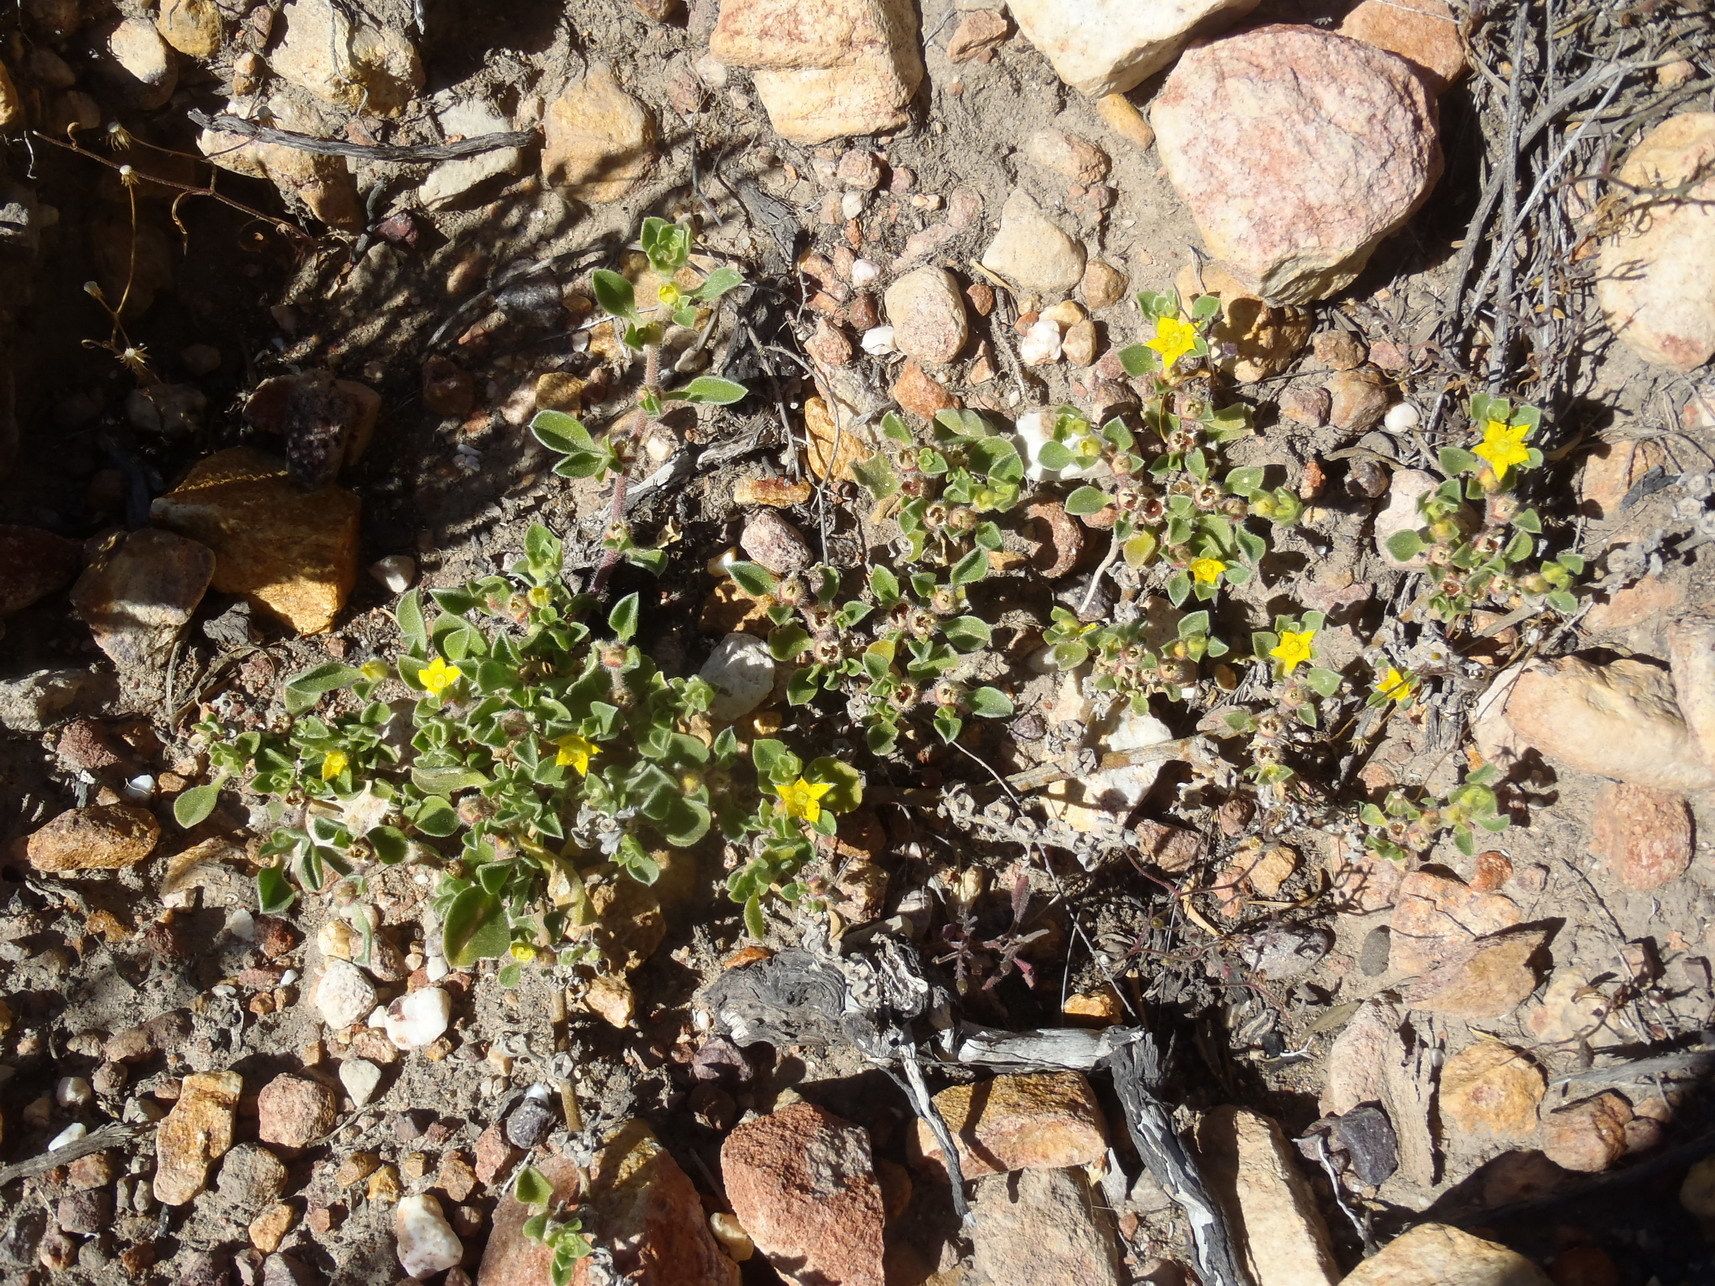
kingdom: Plantae
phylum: Tracheophyta
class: Magnoliopsida
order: Caryophyllales
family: Aizoaceae
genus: Aizoon
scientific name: Aizoon glinoides
